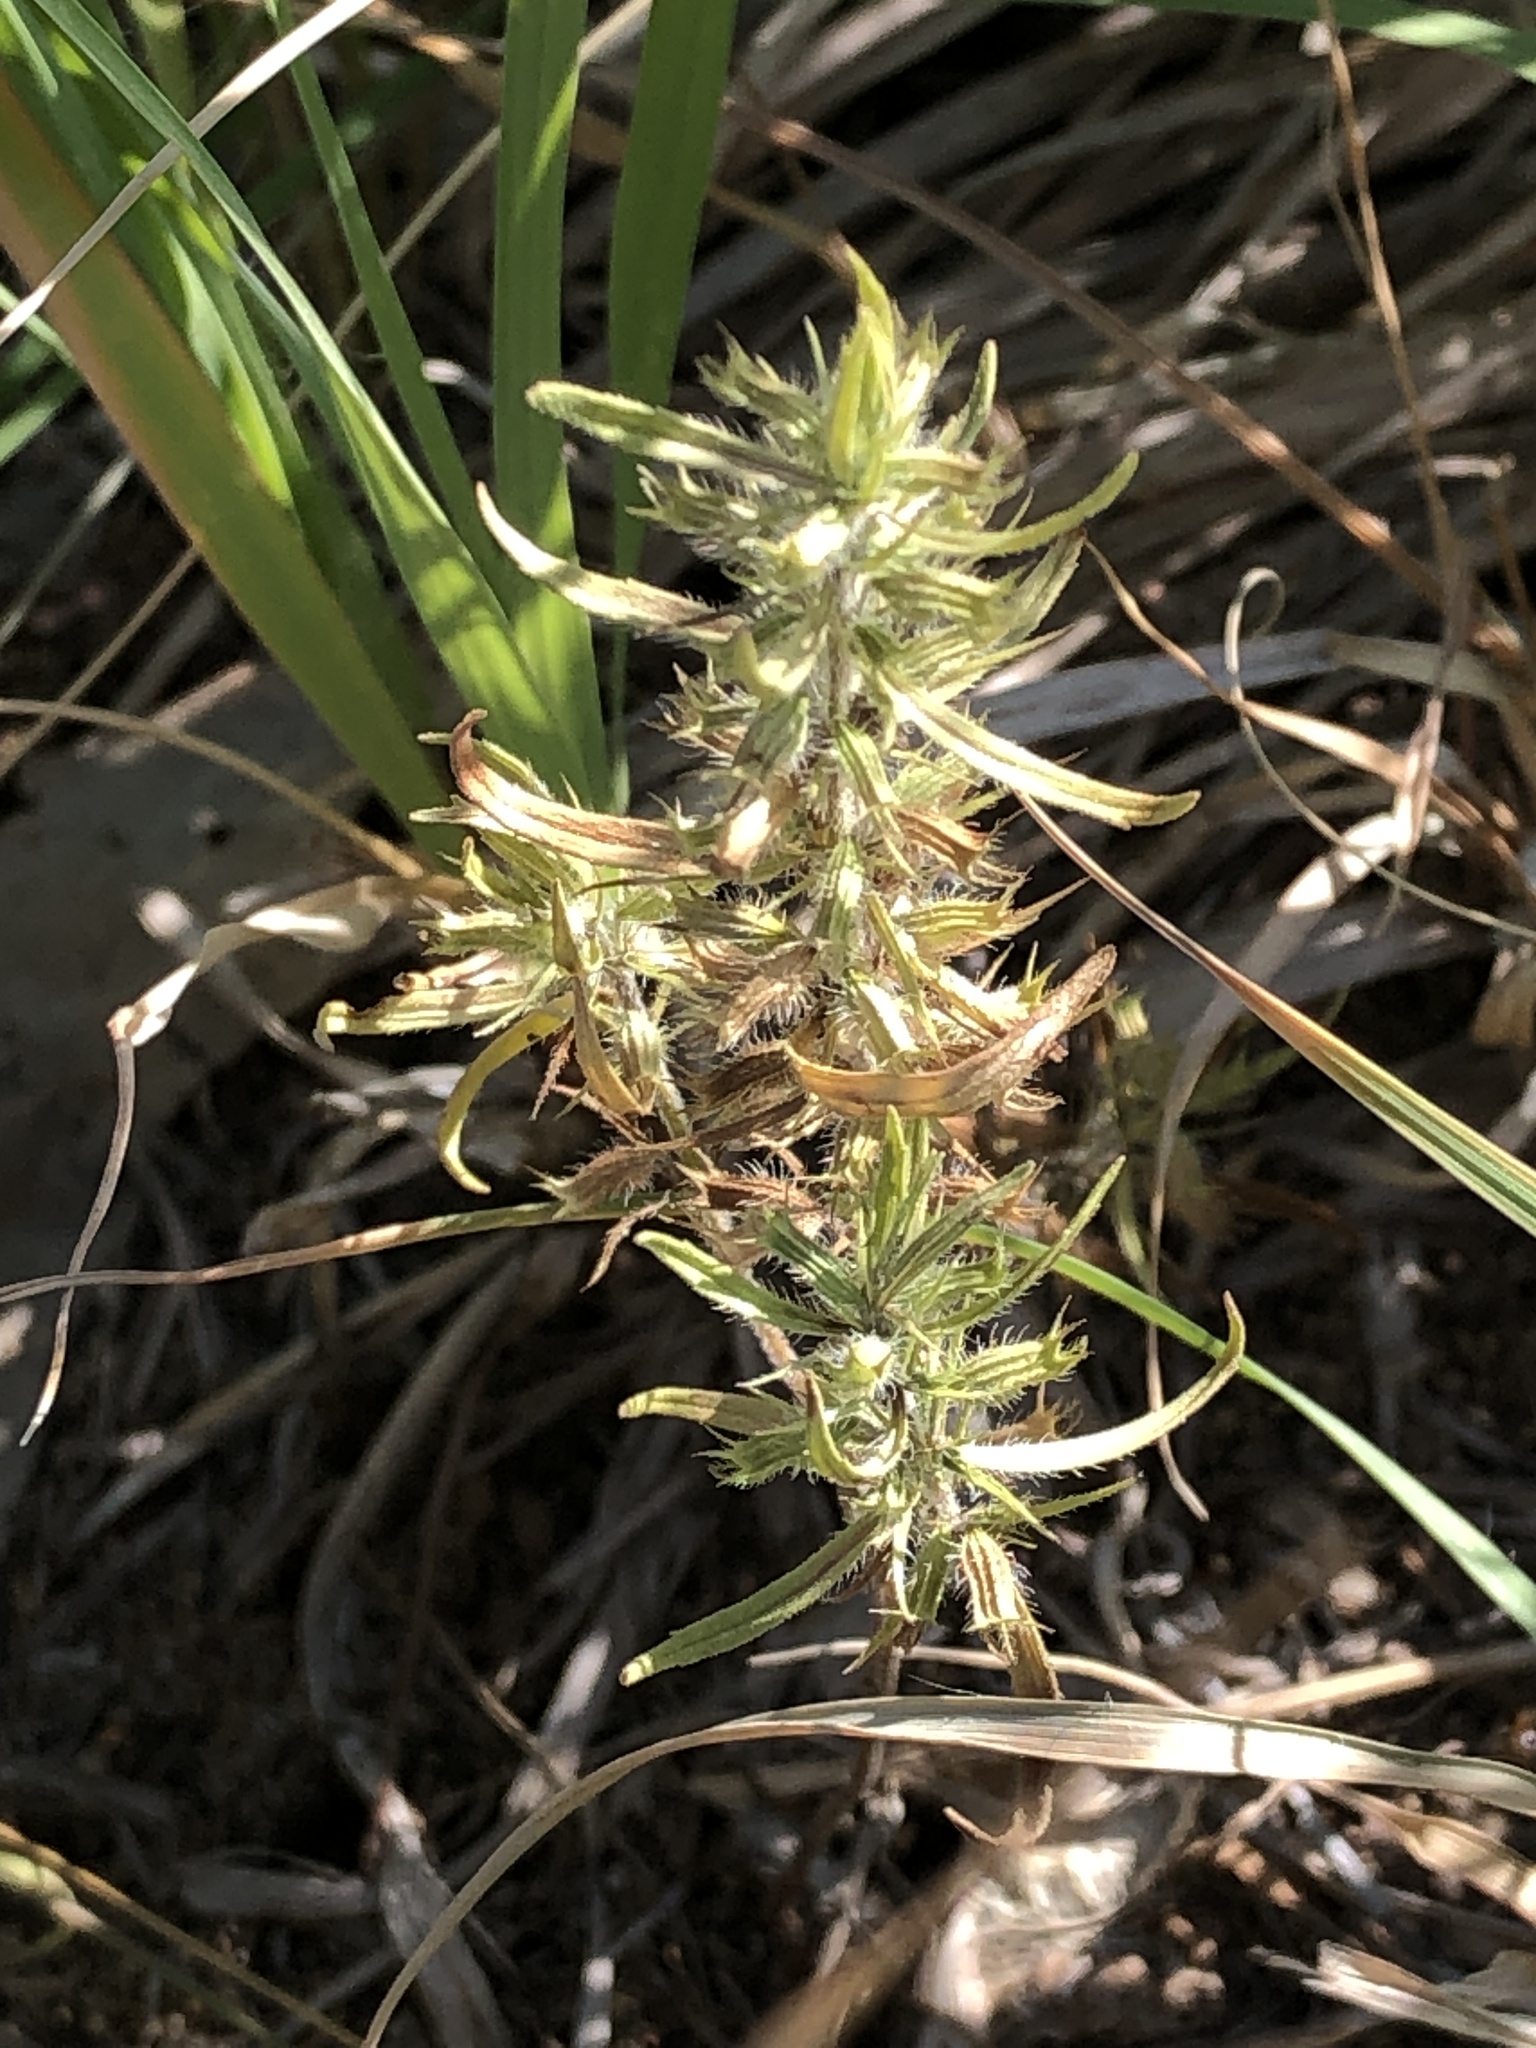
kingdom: Plantae
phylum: Tracheophyta
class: Magnoliopsida
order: Lamiales
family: Lamiaceae
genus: Hedeoma
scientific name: Hedeoma hispida
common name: Mock pennyroyal
